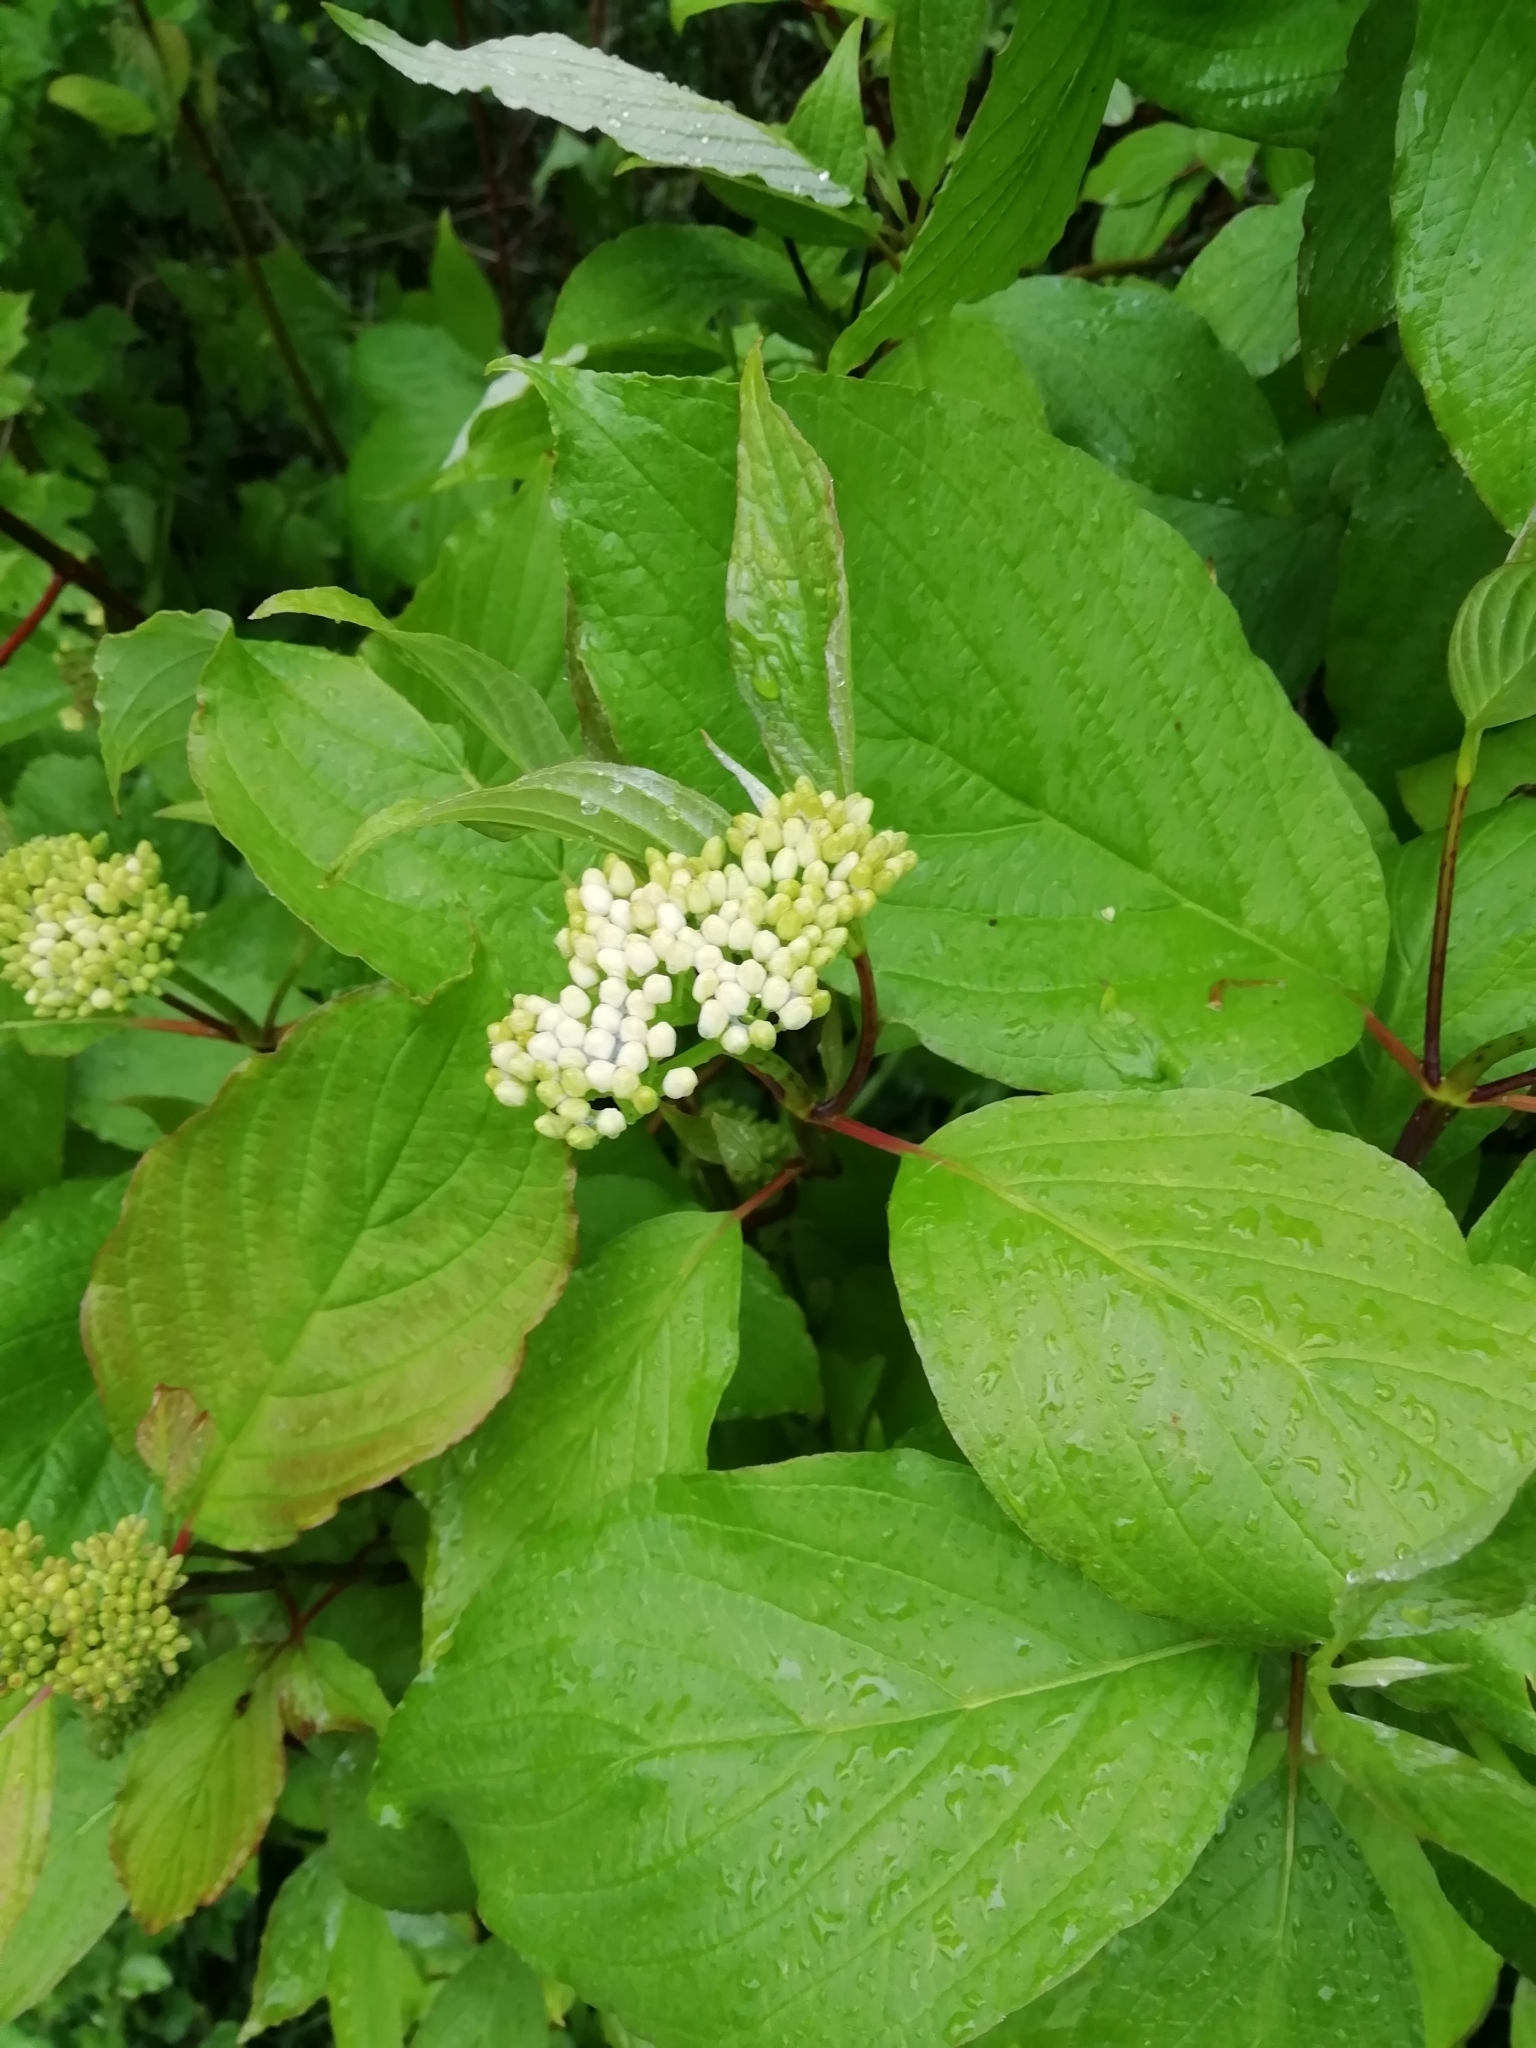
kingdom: Plantae
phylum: Tracheophyta
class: Magnoliopsida
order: Cornales
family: Cornaceae
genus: Cornus
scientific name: Cornus sericea
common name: Red-osier dogwood
